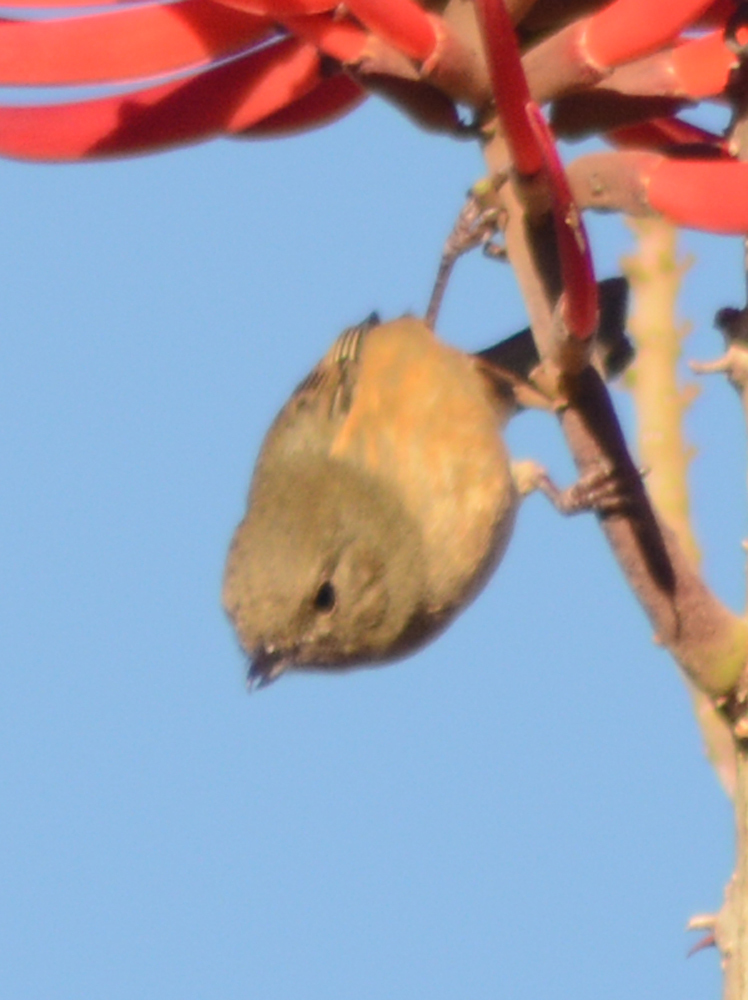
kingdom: Animalia
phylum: Chordata
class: Aves
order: Passeriformes
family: Thraupidae
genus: Diglossa
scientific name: Diglossa baritula
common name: Cinnamon-bellied flowerpiercer
